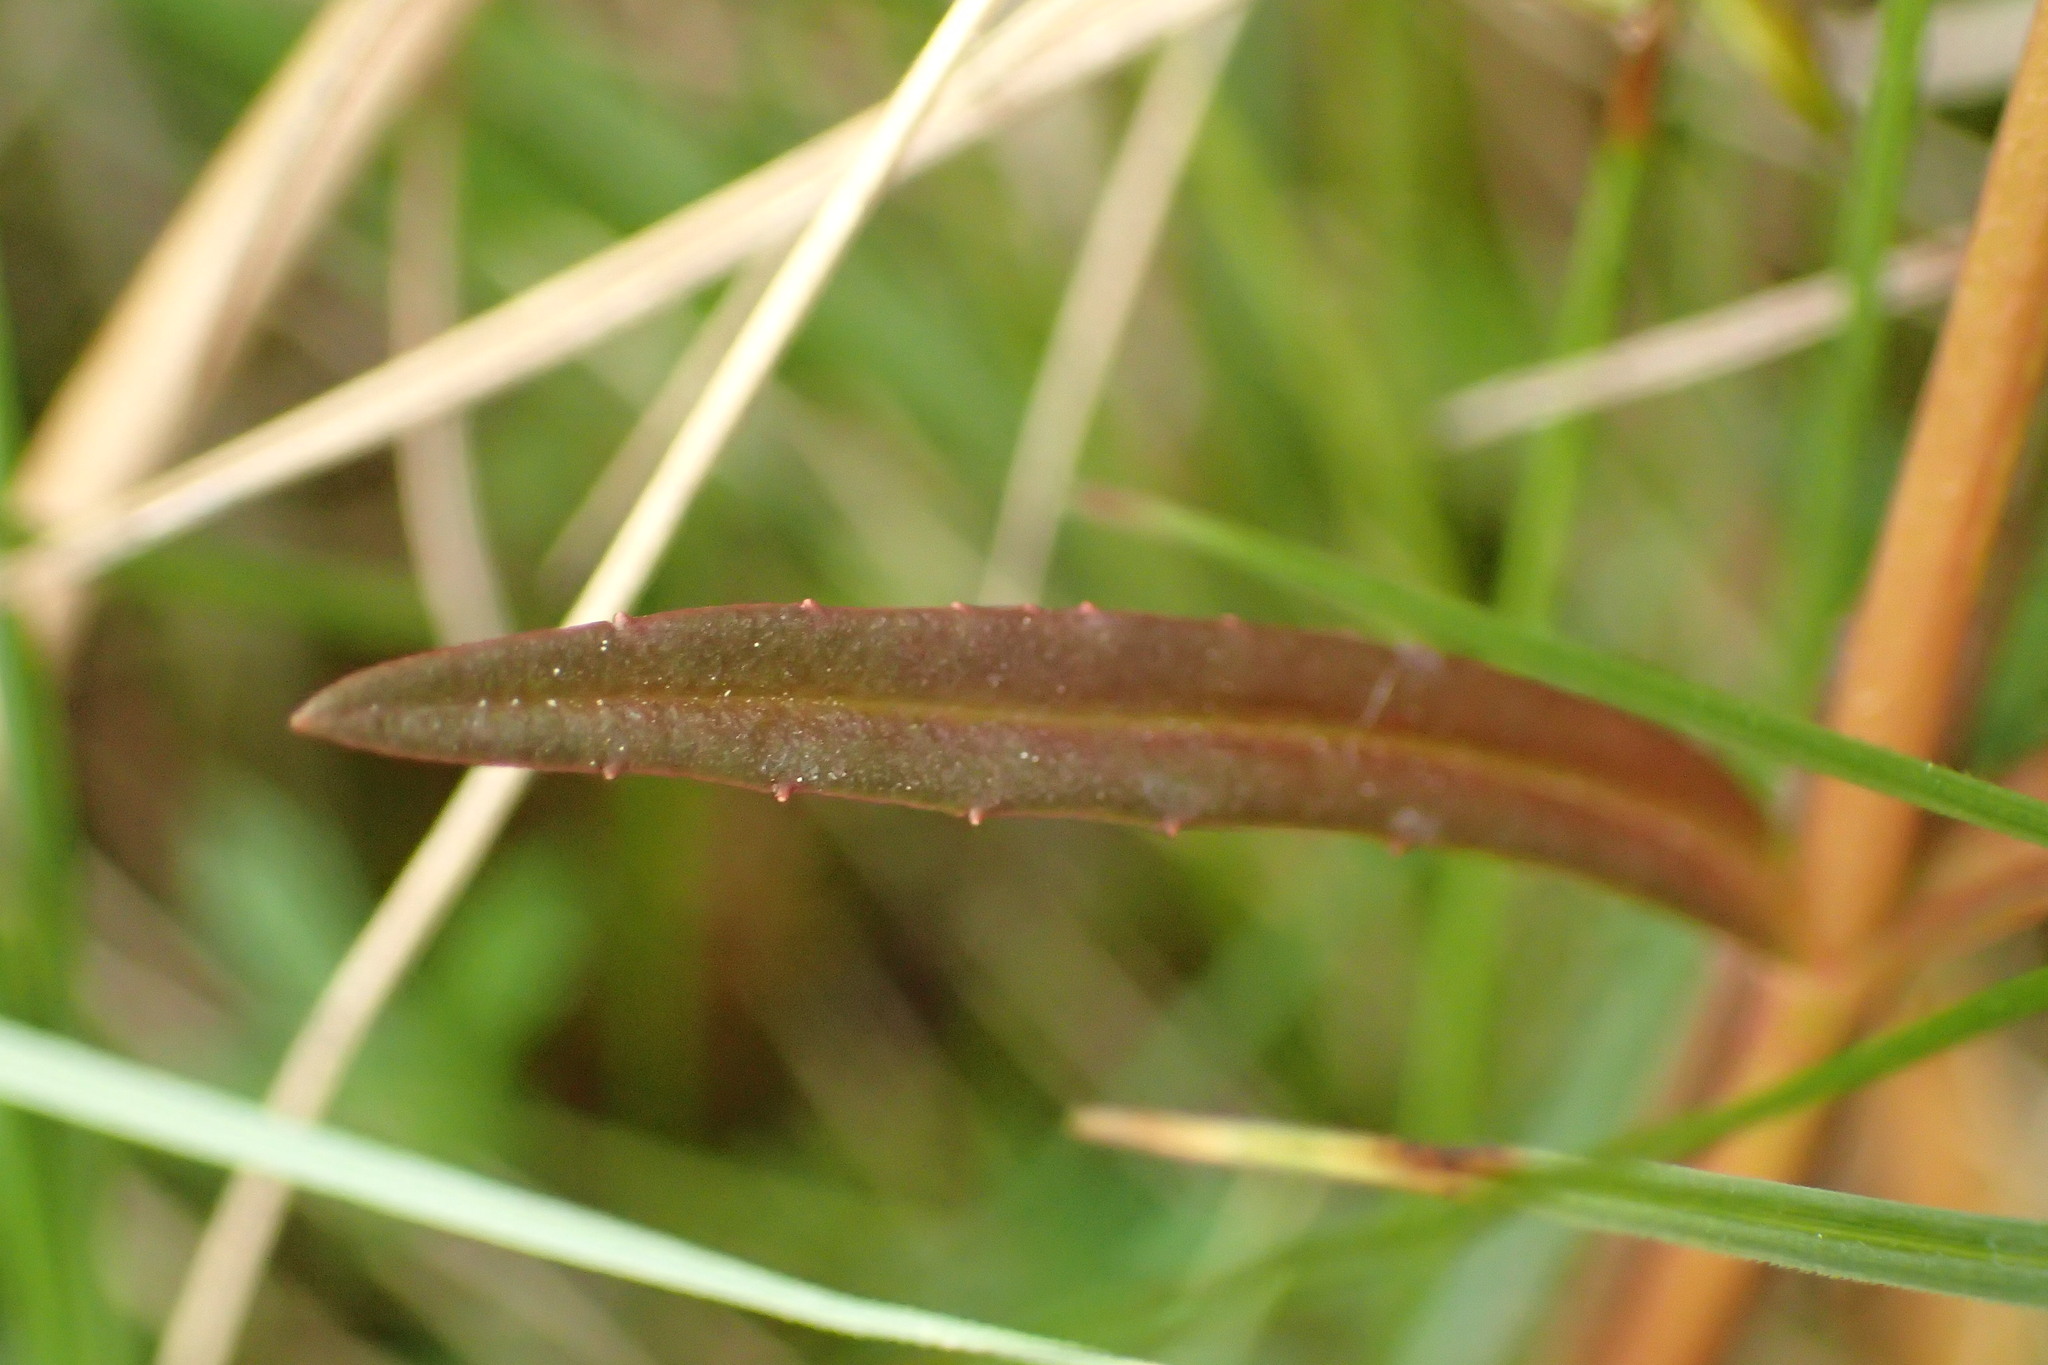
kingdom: Plantae
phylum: Tracheophyta
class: Magnoliopsida
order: Lamiales
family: Plantaginaceae
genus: Veronica
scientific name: Veronica scutellata
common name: Marsh speedwell
